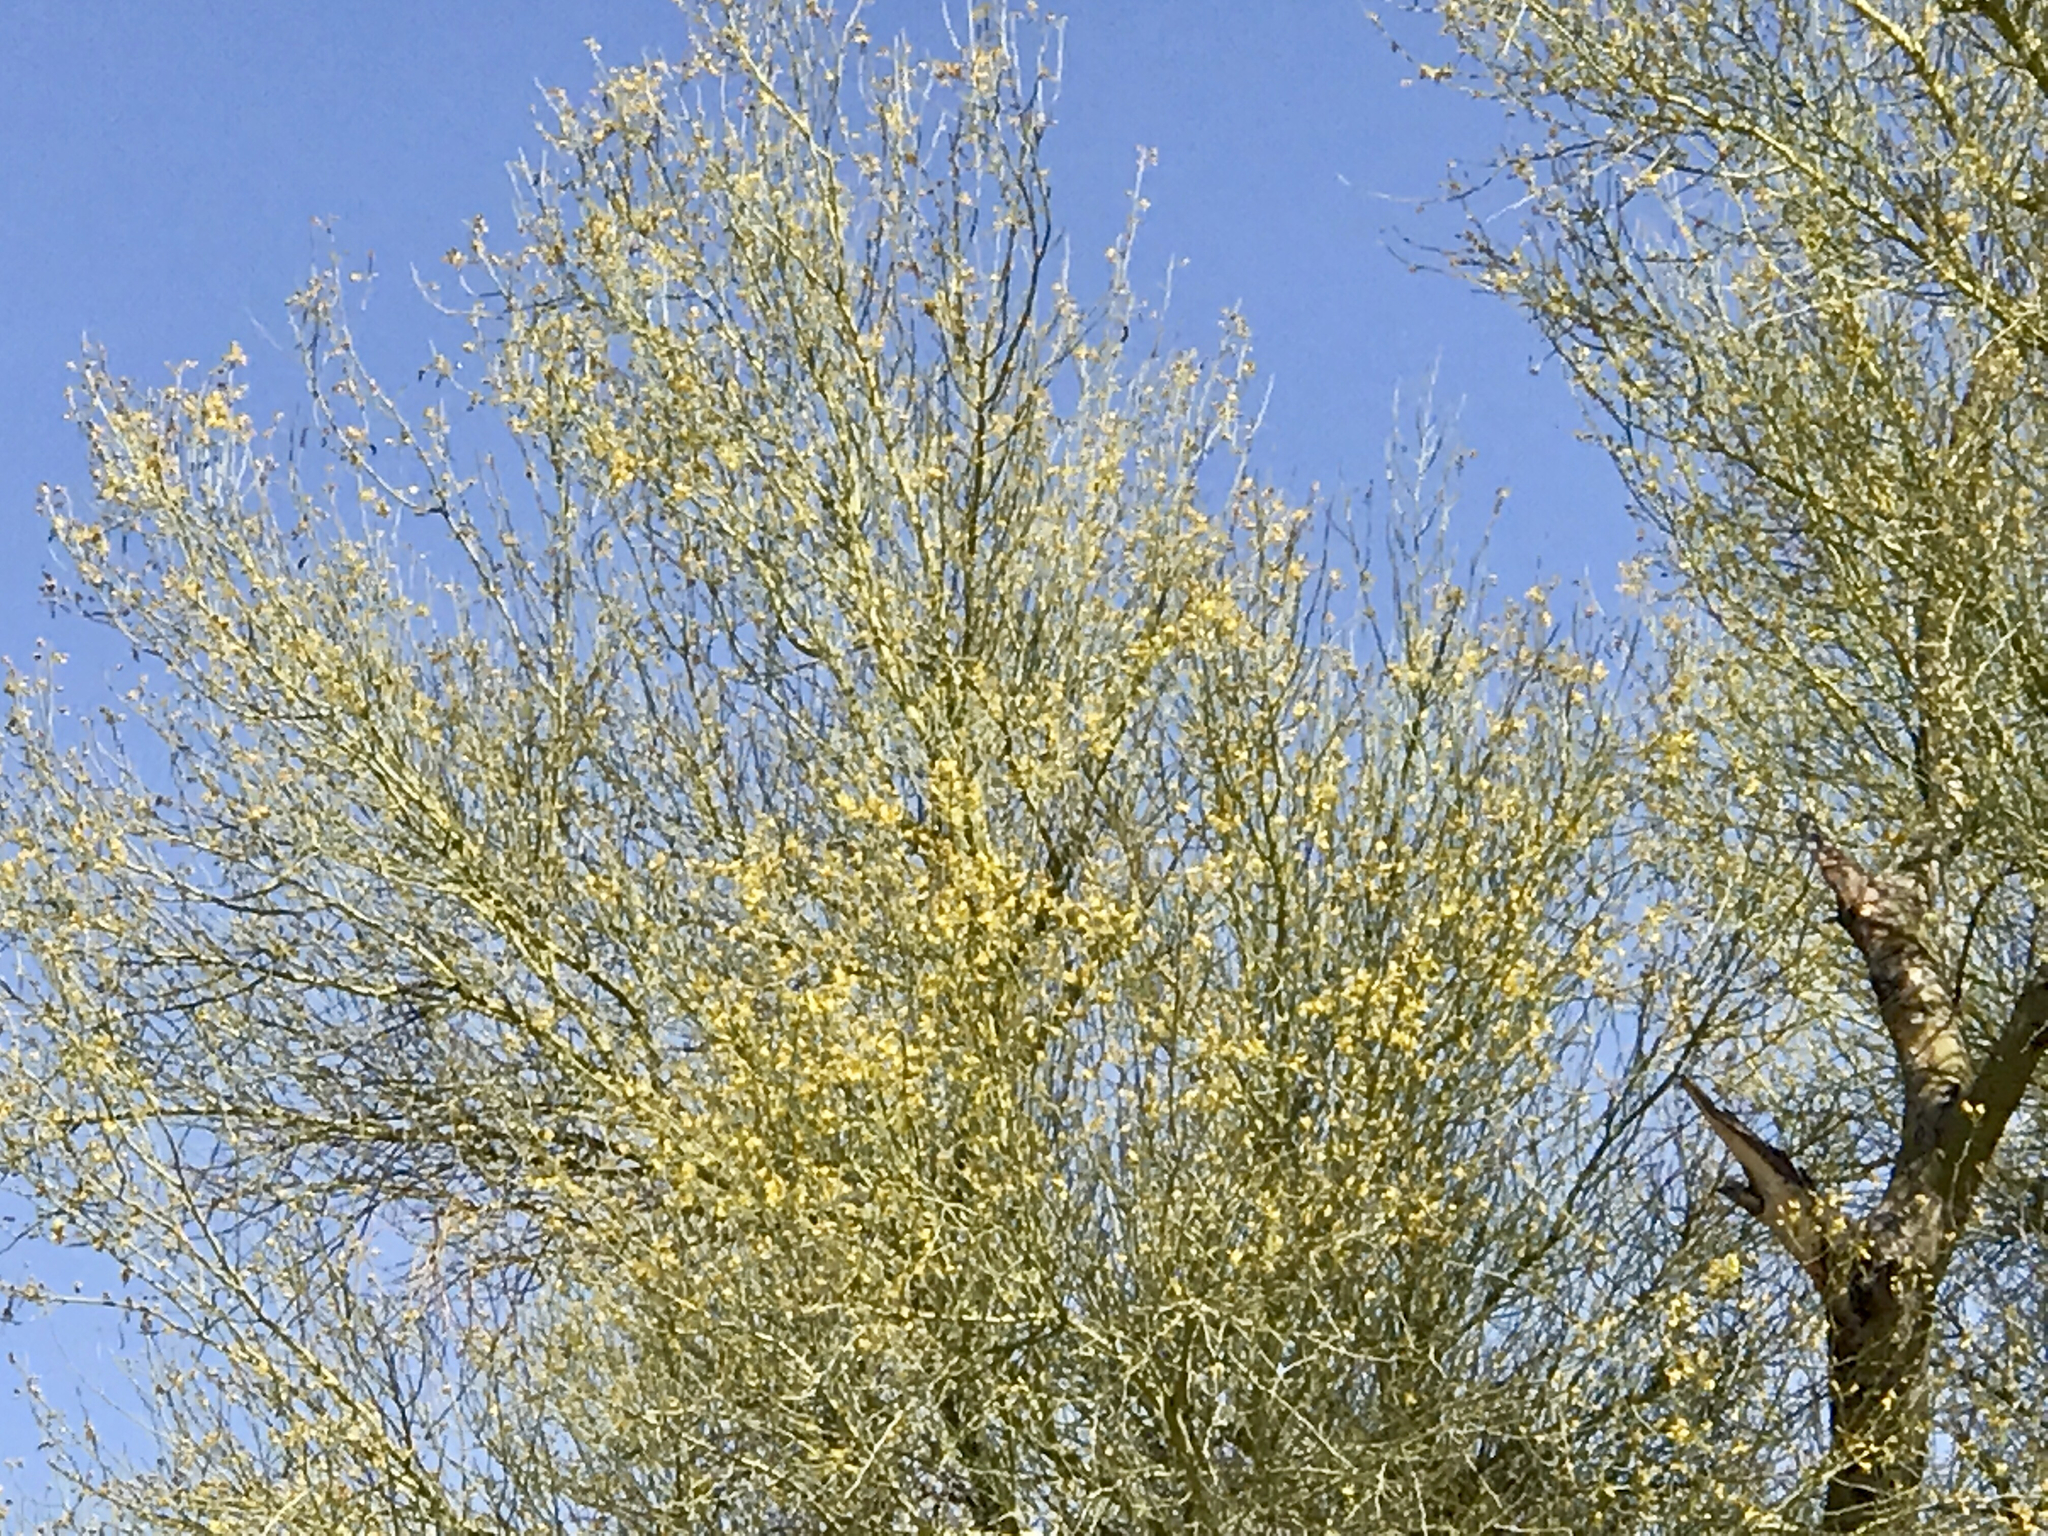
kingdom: Plantae
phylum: Tracheophyta
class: Magnoliopsida
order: Fabales
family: Fabaceae
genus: Parkinsonia
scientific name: Parkinsonia florida
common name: Blue paloverde
